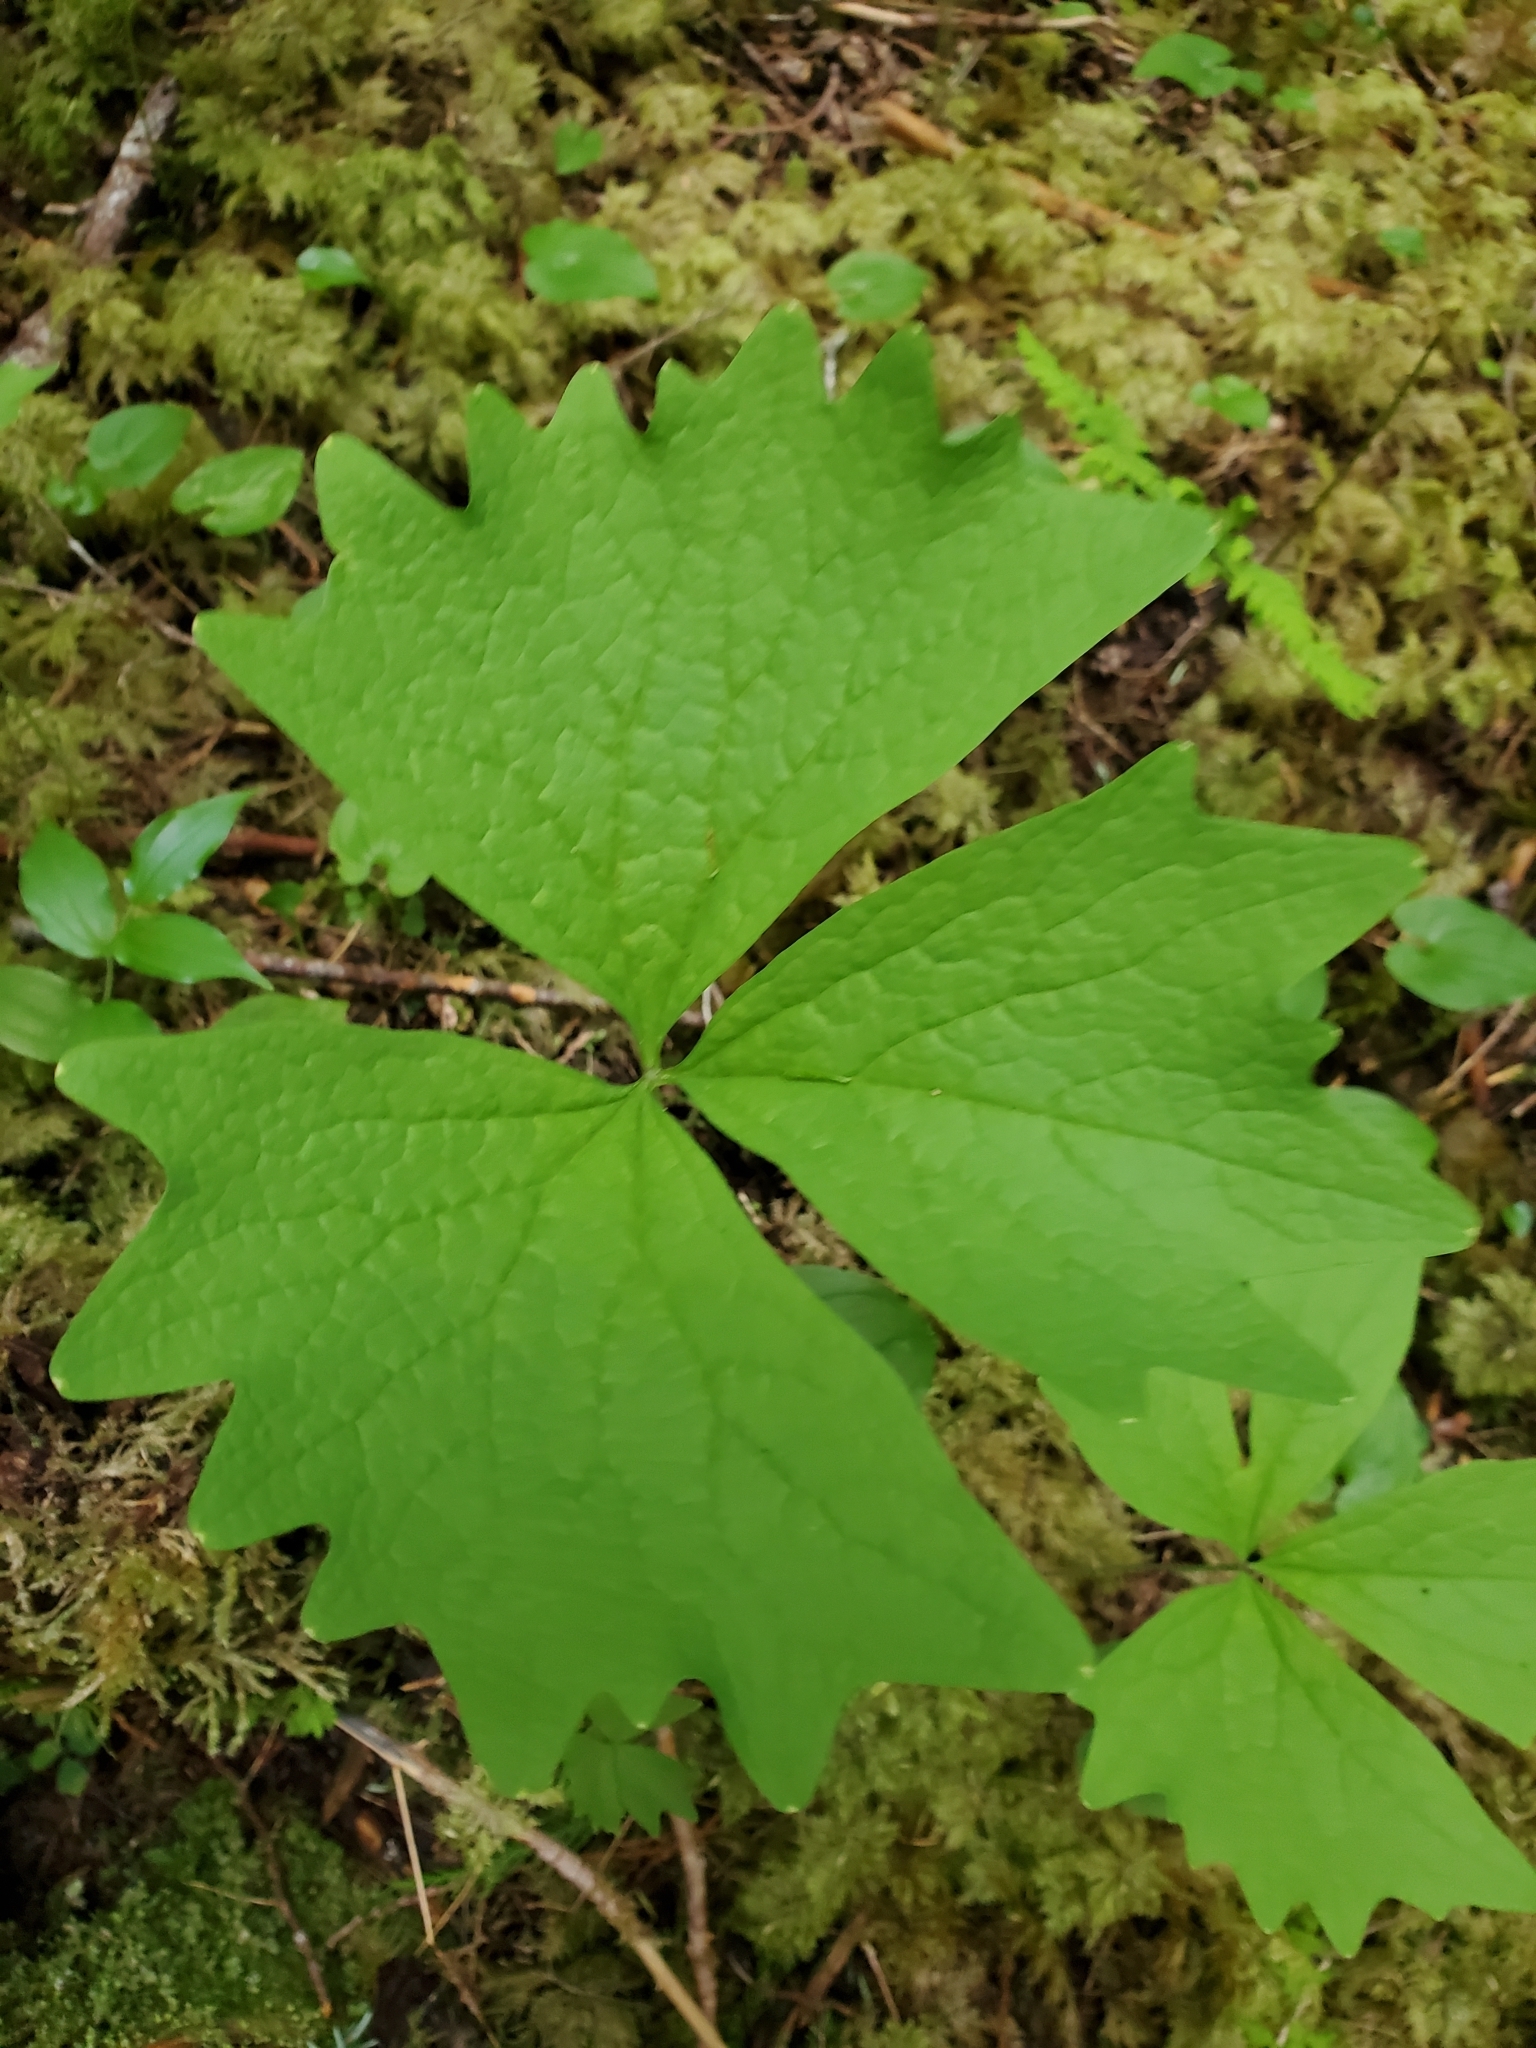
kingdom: Plantae
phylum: Tracheophyta
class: Magnoliopsida
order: Ranunculales
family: Berberidaceae
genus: Achlys
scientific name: Achlys triphylla
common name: Vanilla-leaf
